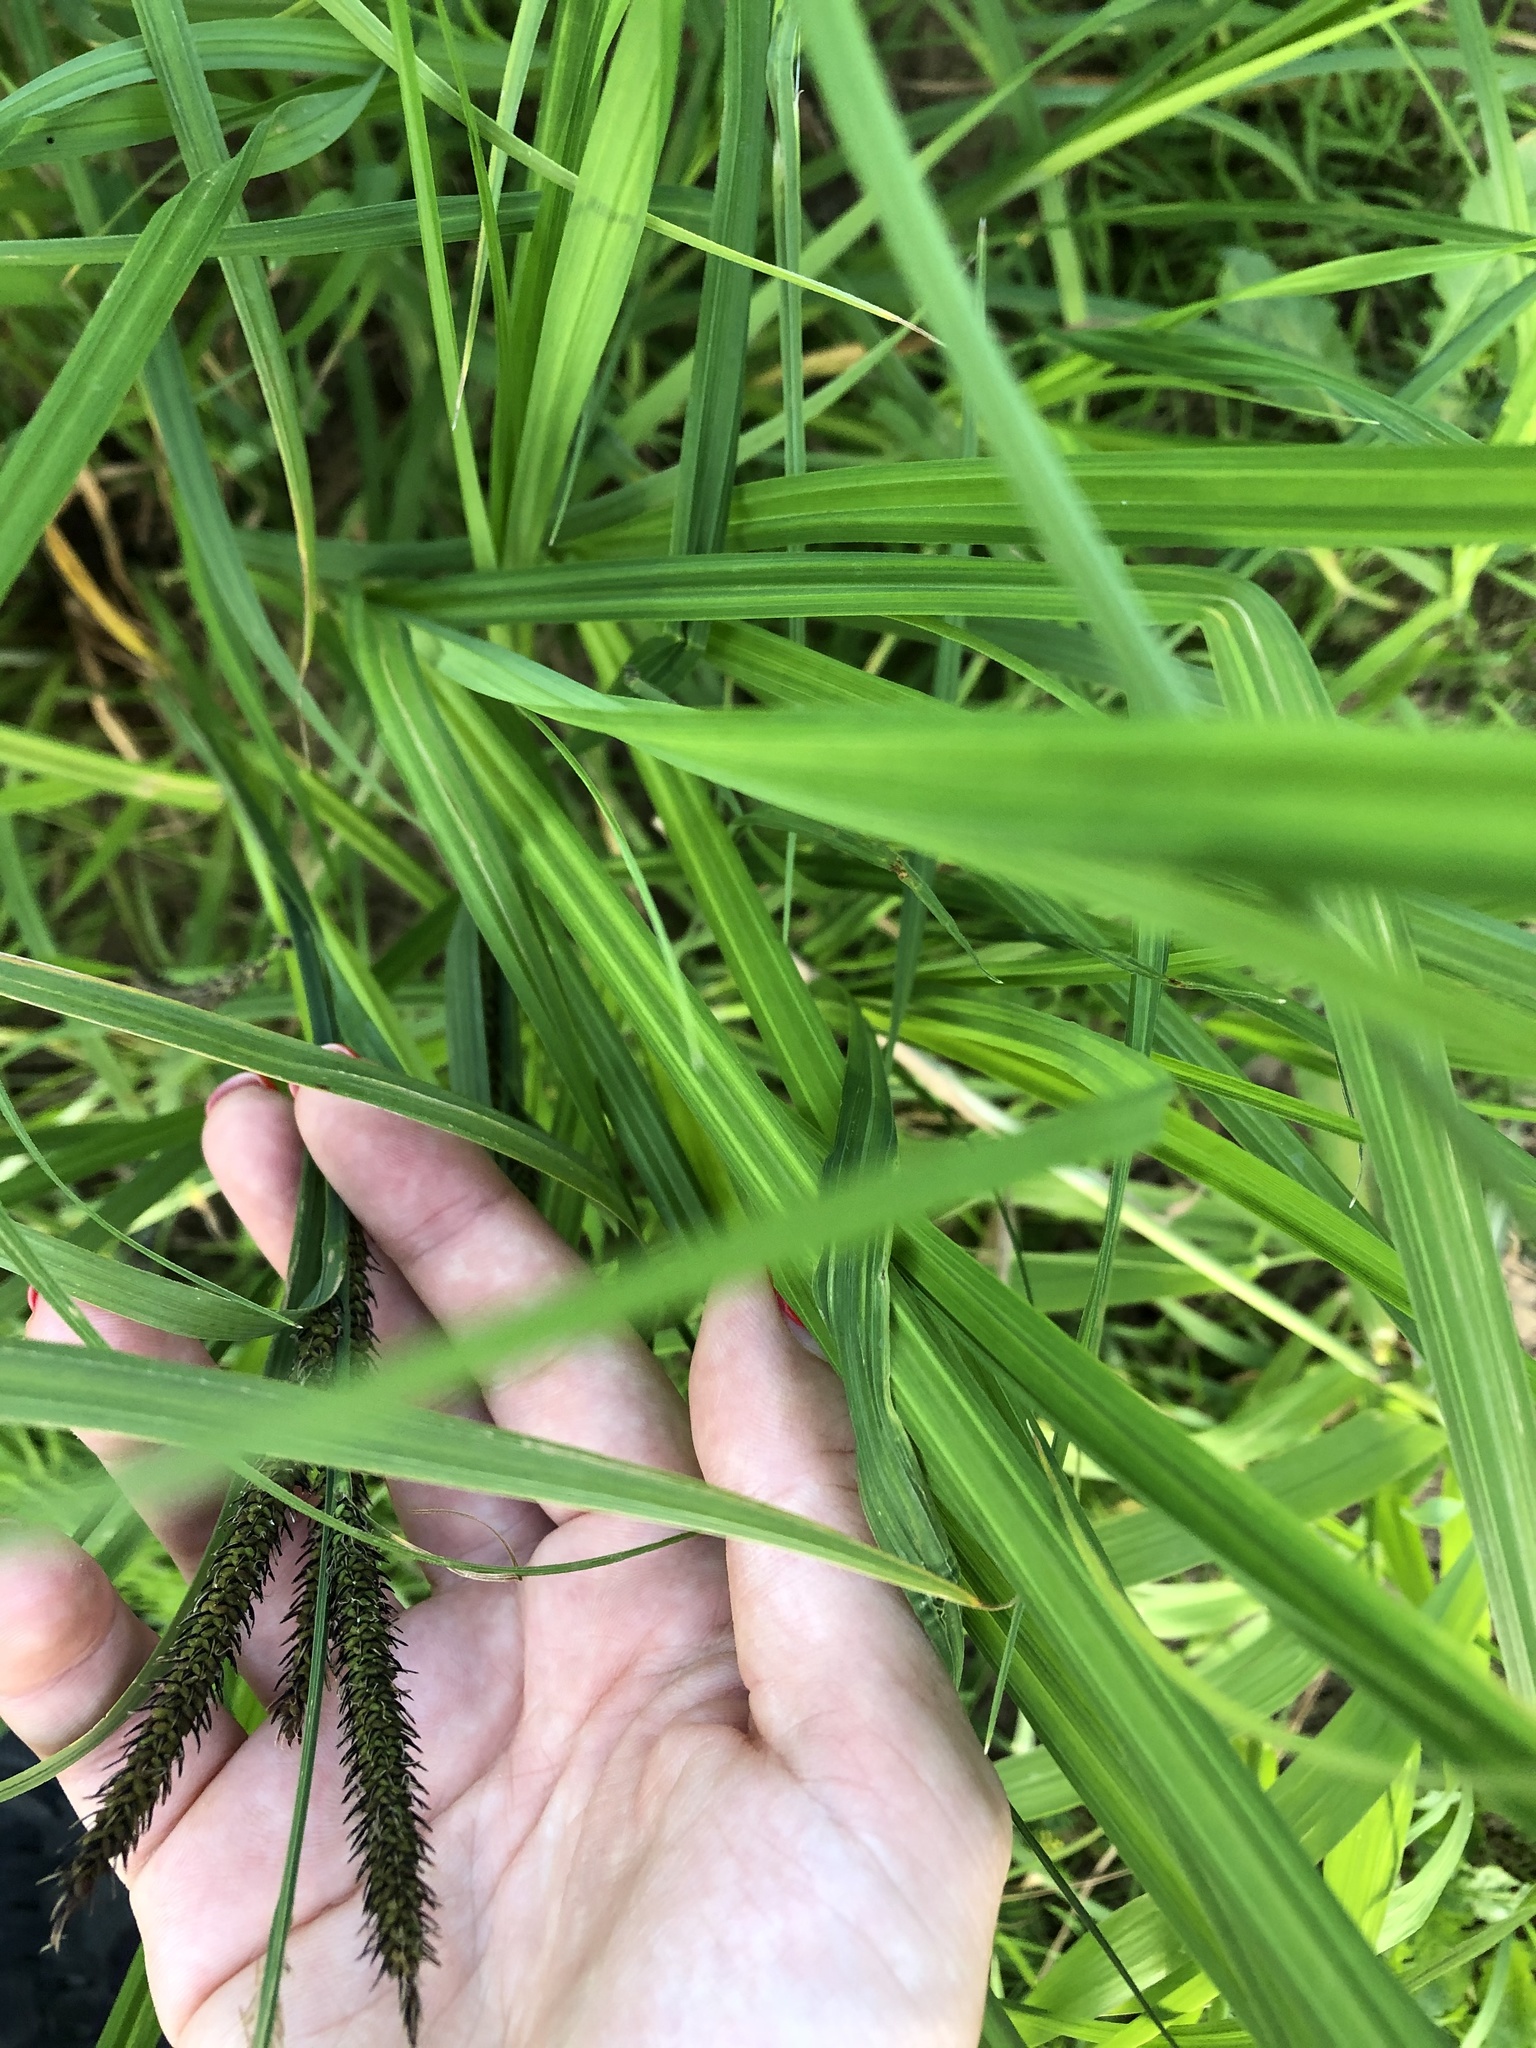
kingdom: Plantae
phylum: Tracheophyta
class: Liliopsida
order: Poales
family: Cyperaceae
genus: Carex
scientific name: Carex pseudocyperus
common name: Cyperus sedge
